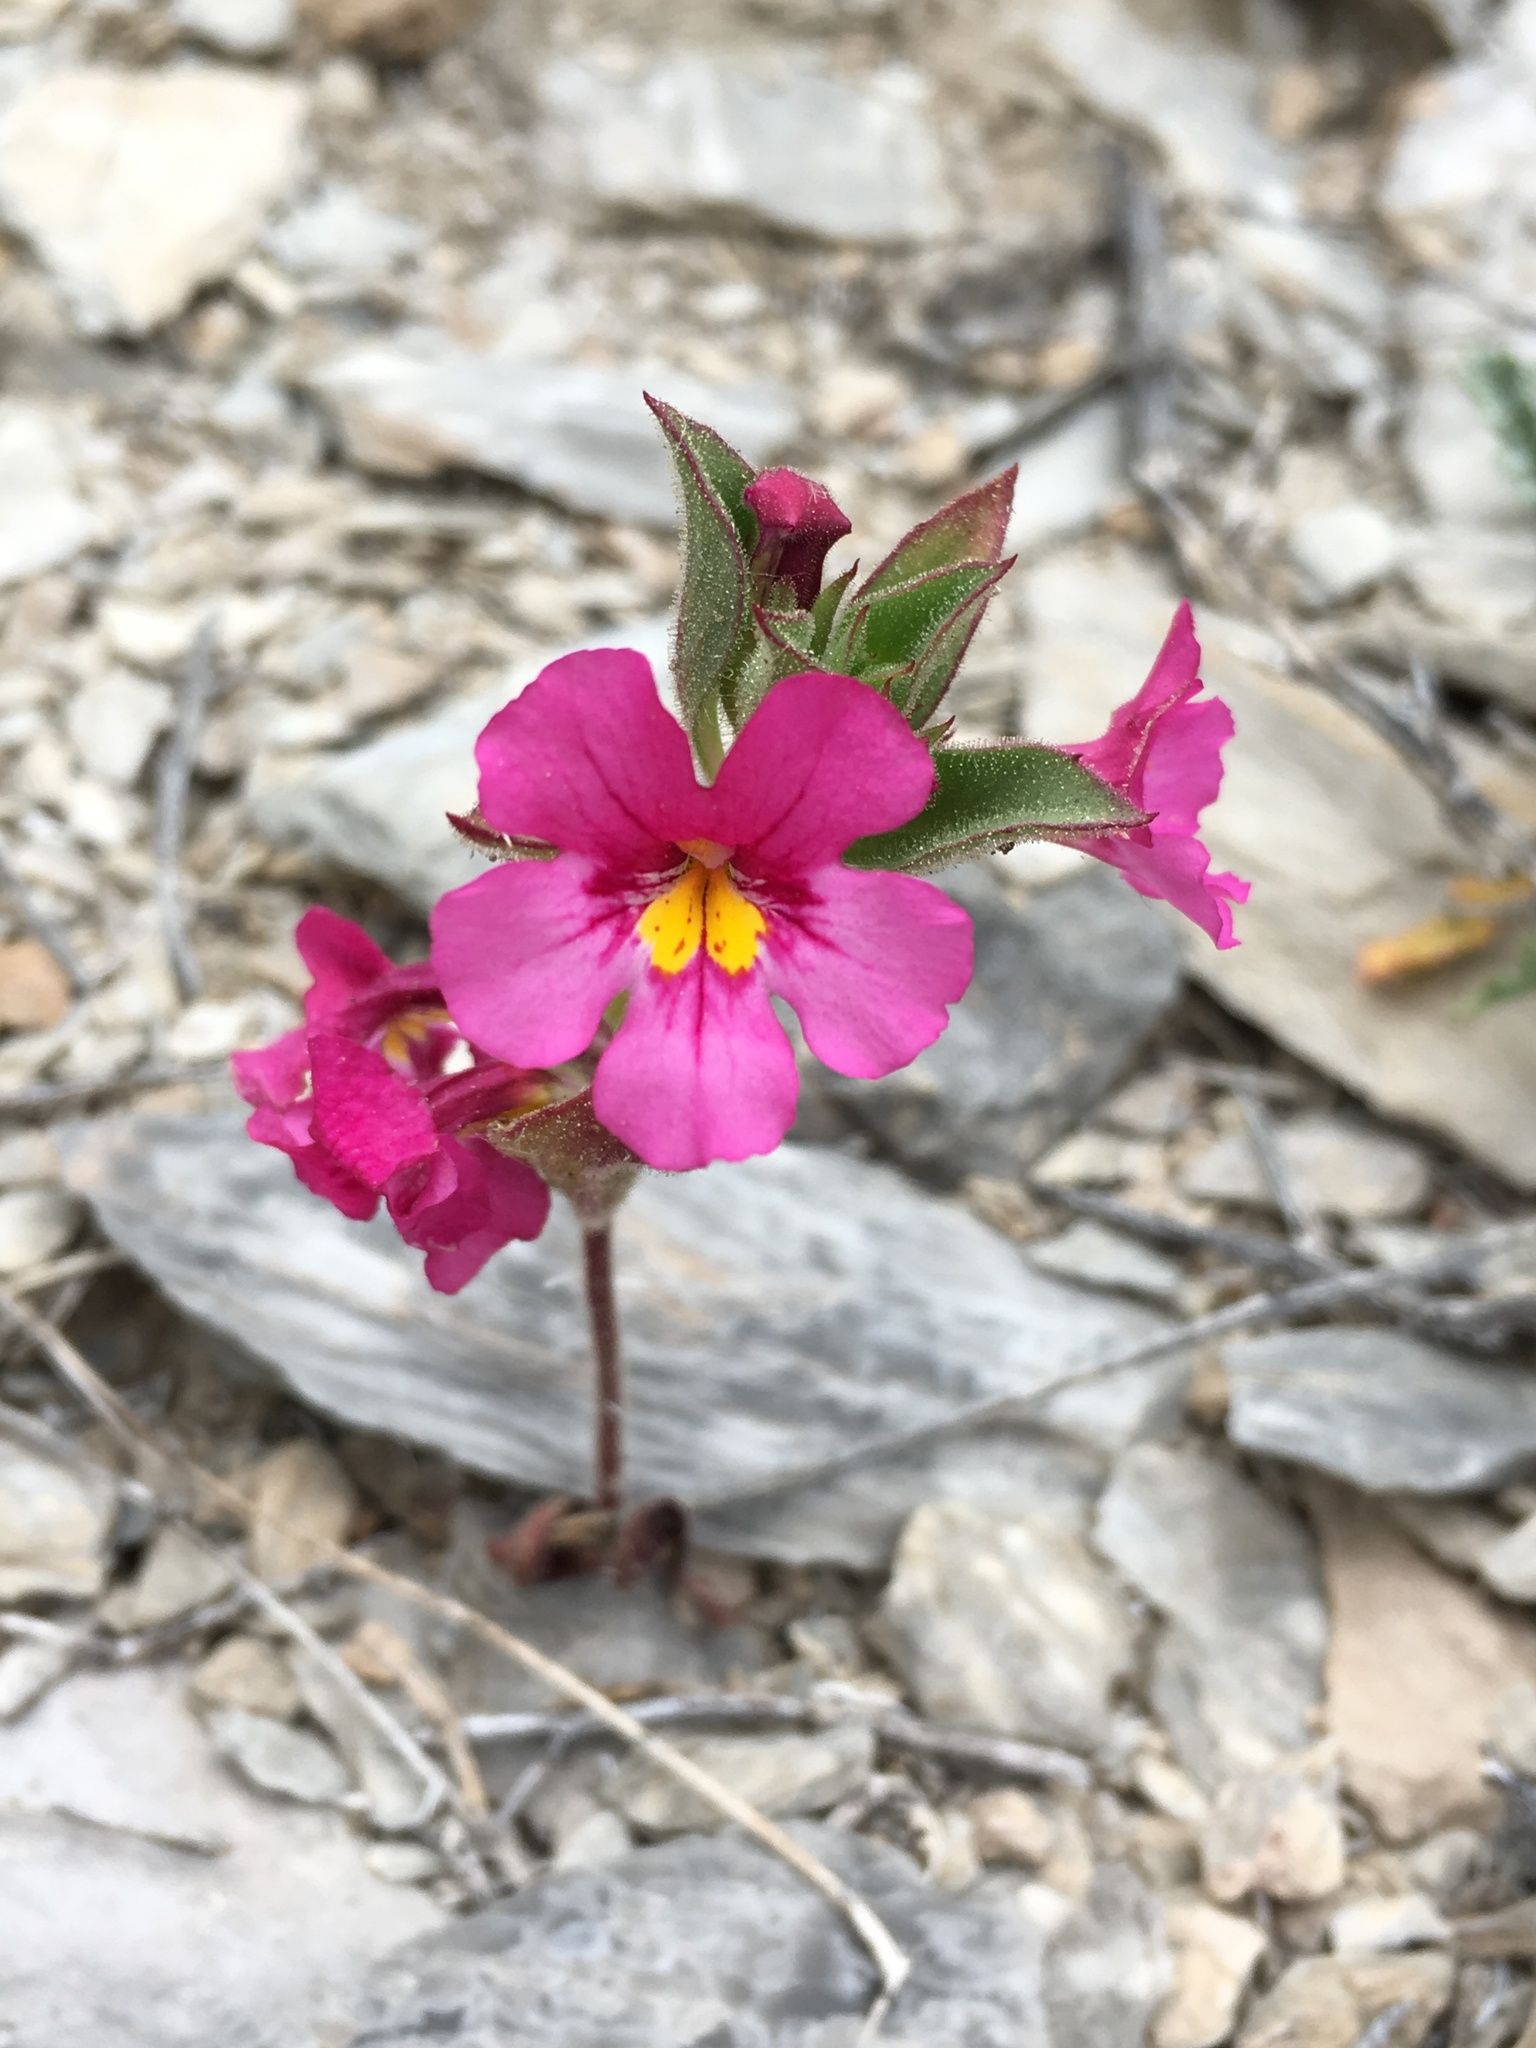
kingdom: Plantae
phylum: Tracheophyta
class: Magnoliopsida
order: Lamiales
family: Phrymaceae
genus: Diplacus
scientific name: Diplacus bigelovii
